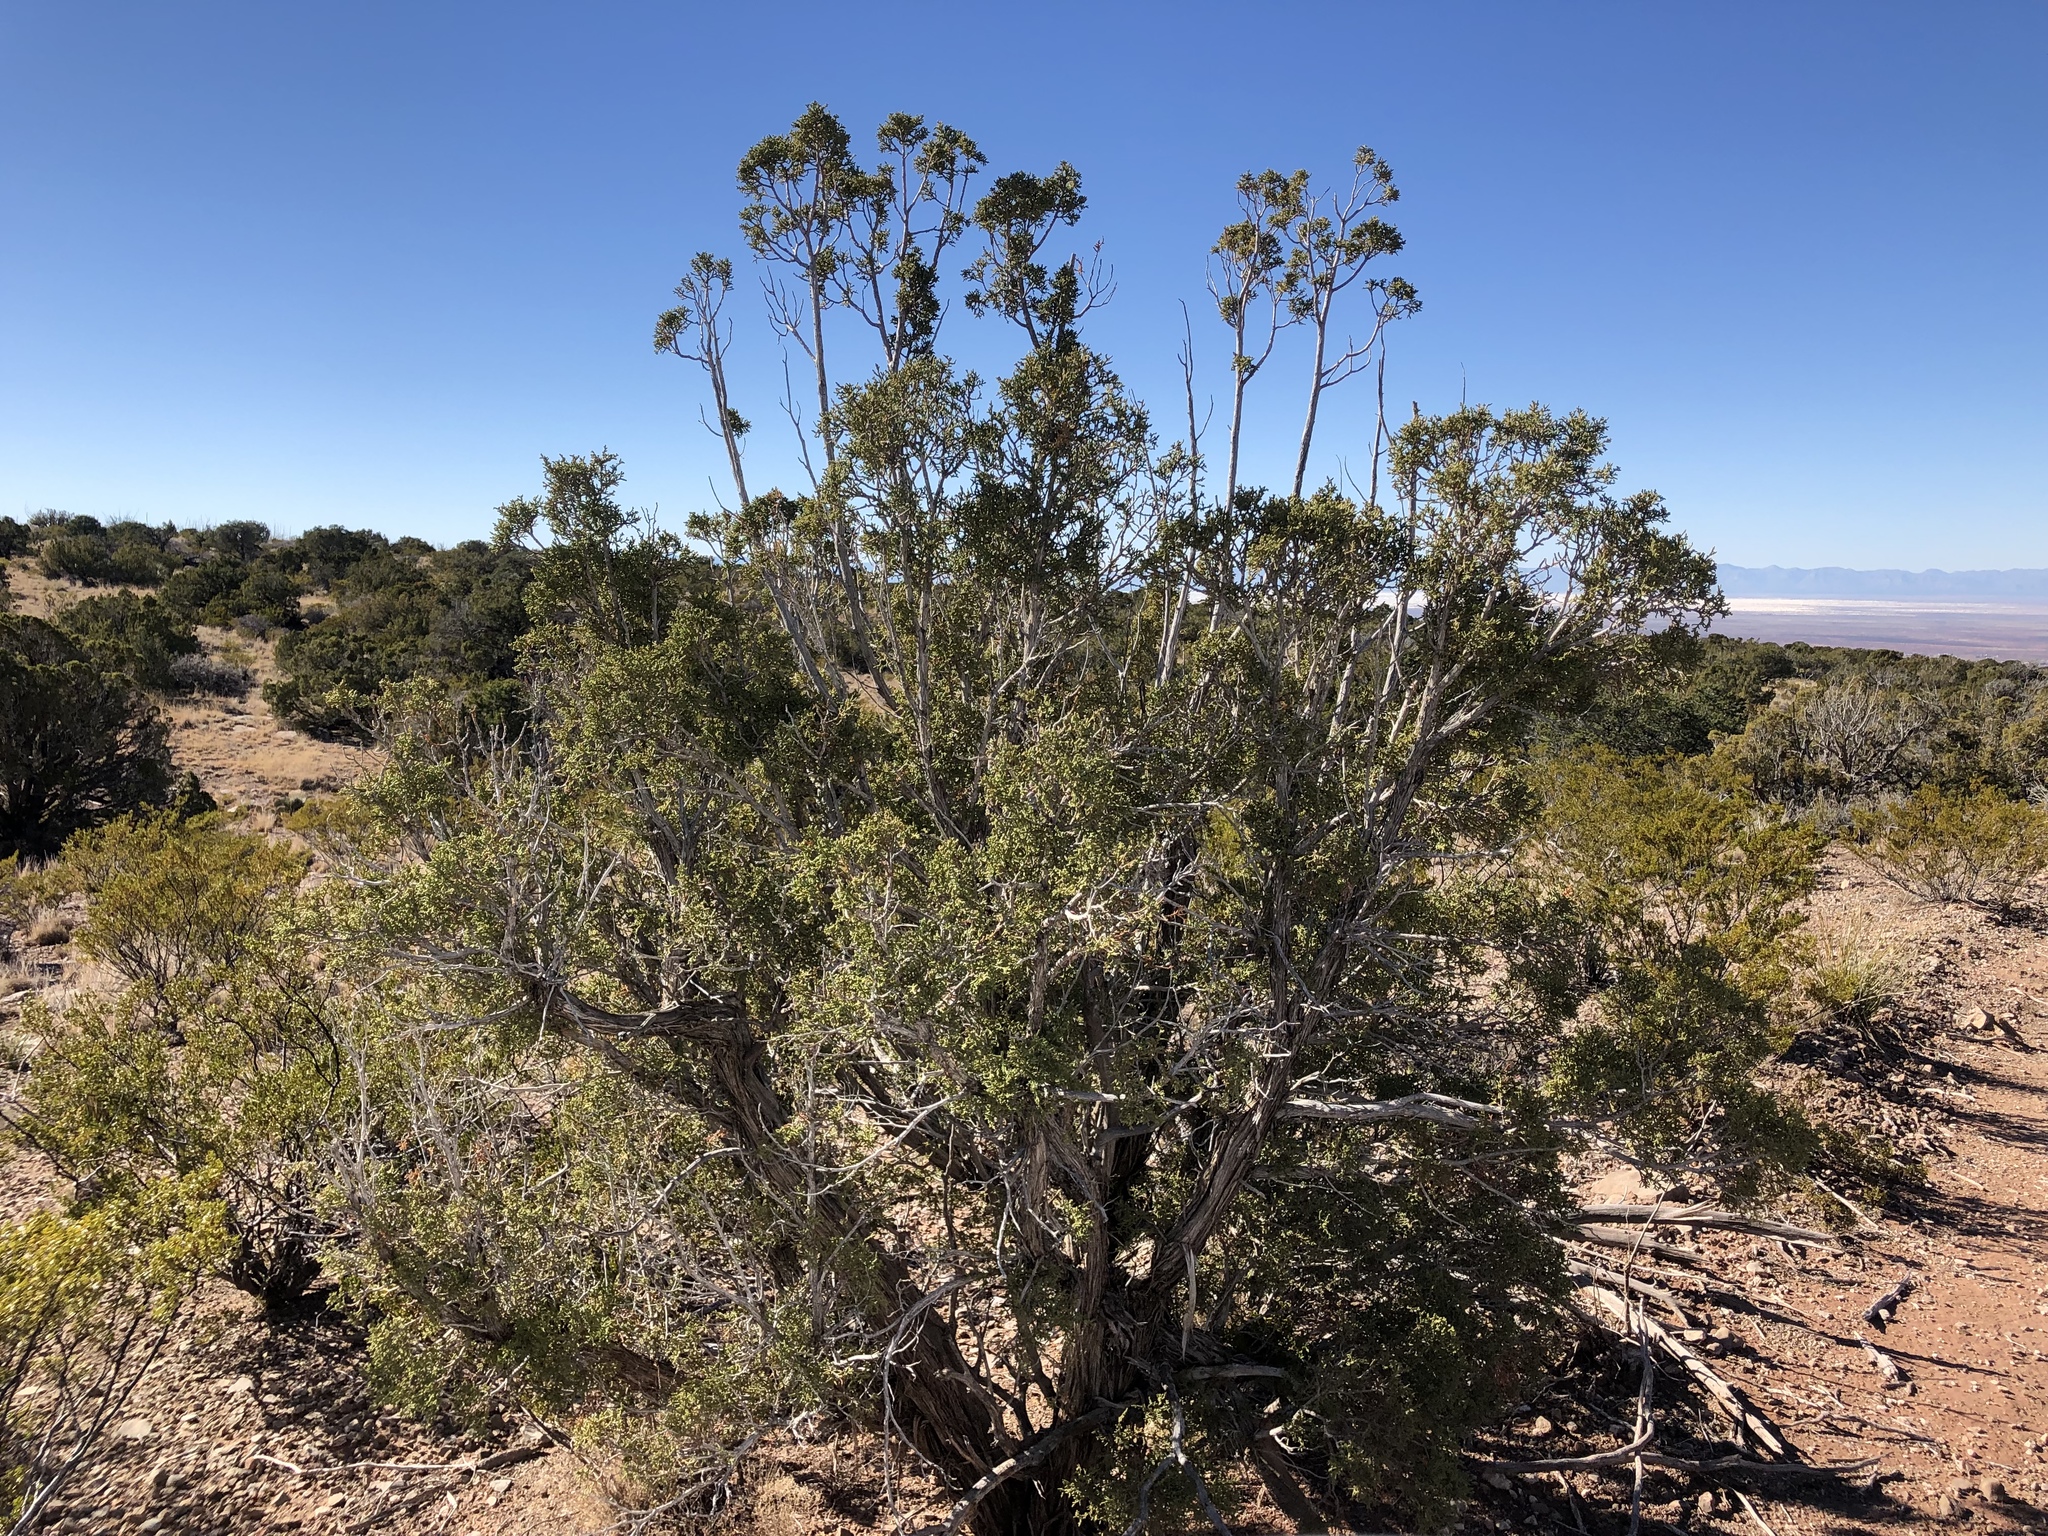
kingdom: Plantae
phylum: Tracheophyta
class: Pinopsida
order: Pinales
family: Cupressaceae
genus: Juniperus
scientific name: Juniperus monosperma
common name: One-seed juniper
